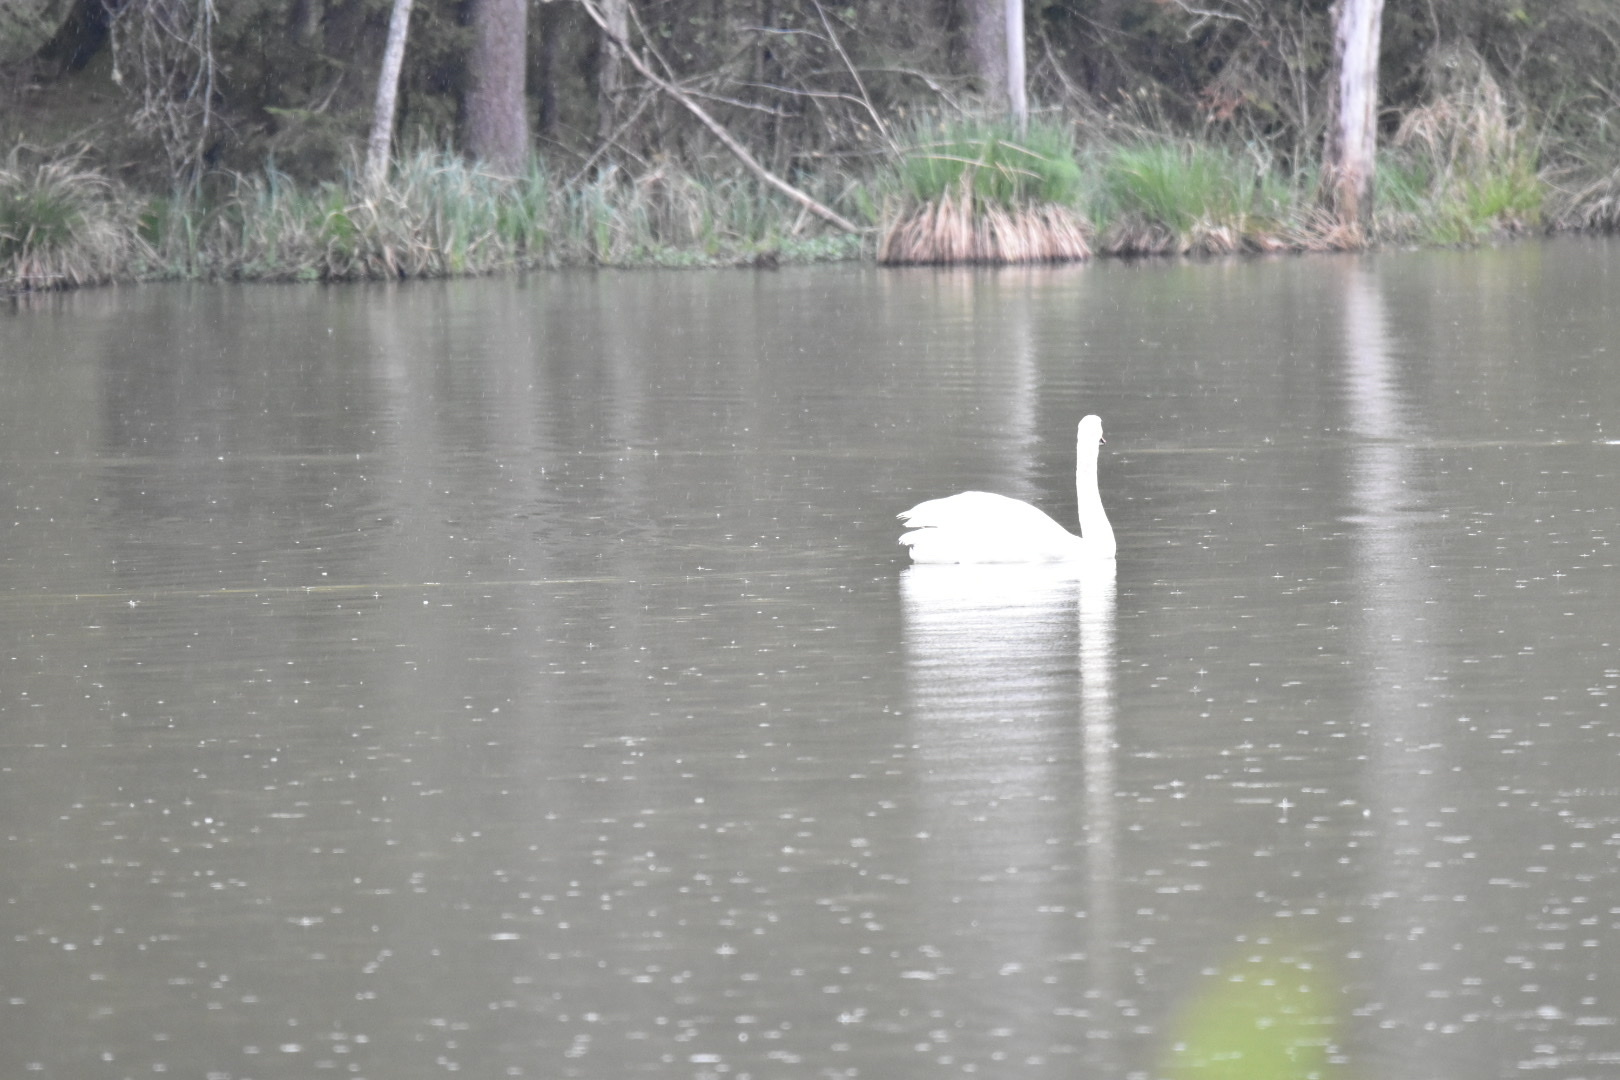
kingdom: Animalia
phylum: Chordata
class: Aves
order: Anseriformes
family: Anatidae
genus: Cygnus
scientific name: Cygnus olor
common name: Mute swan
